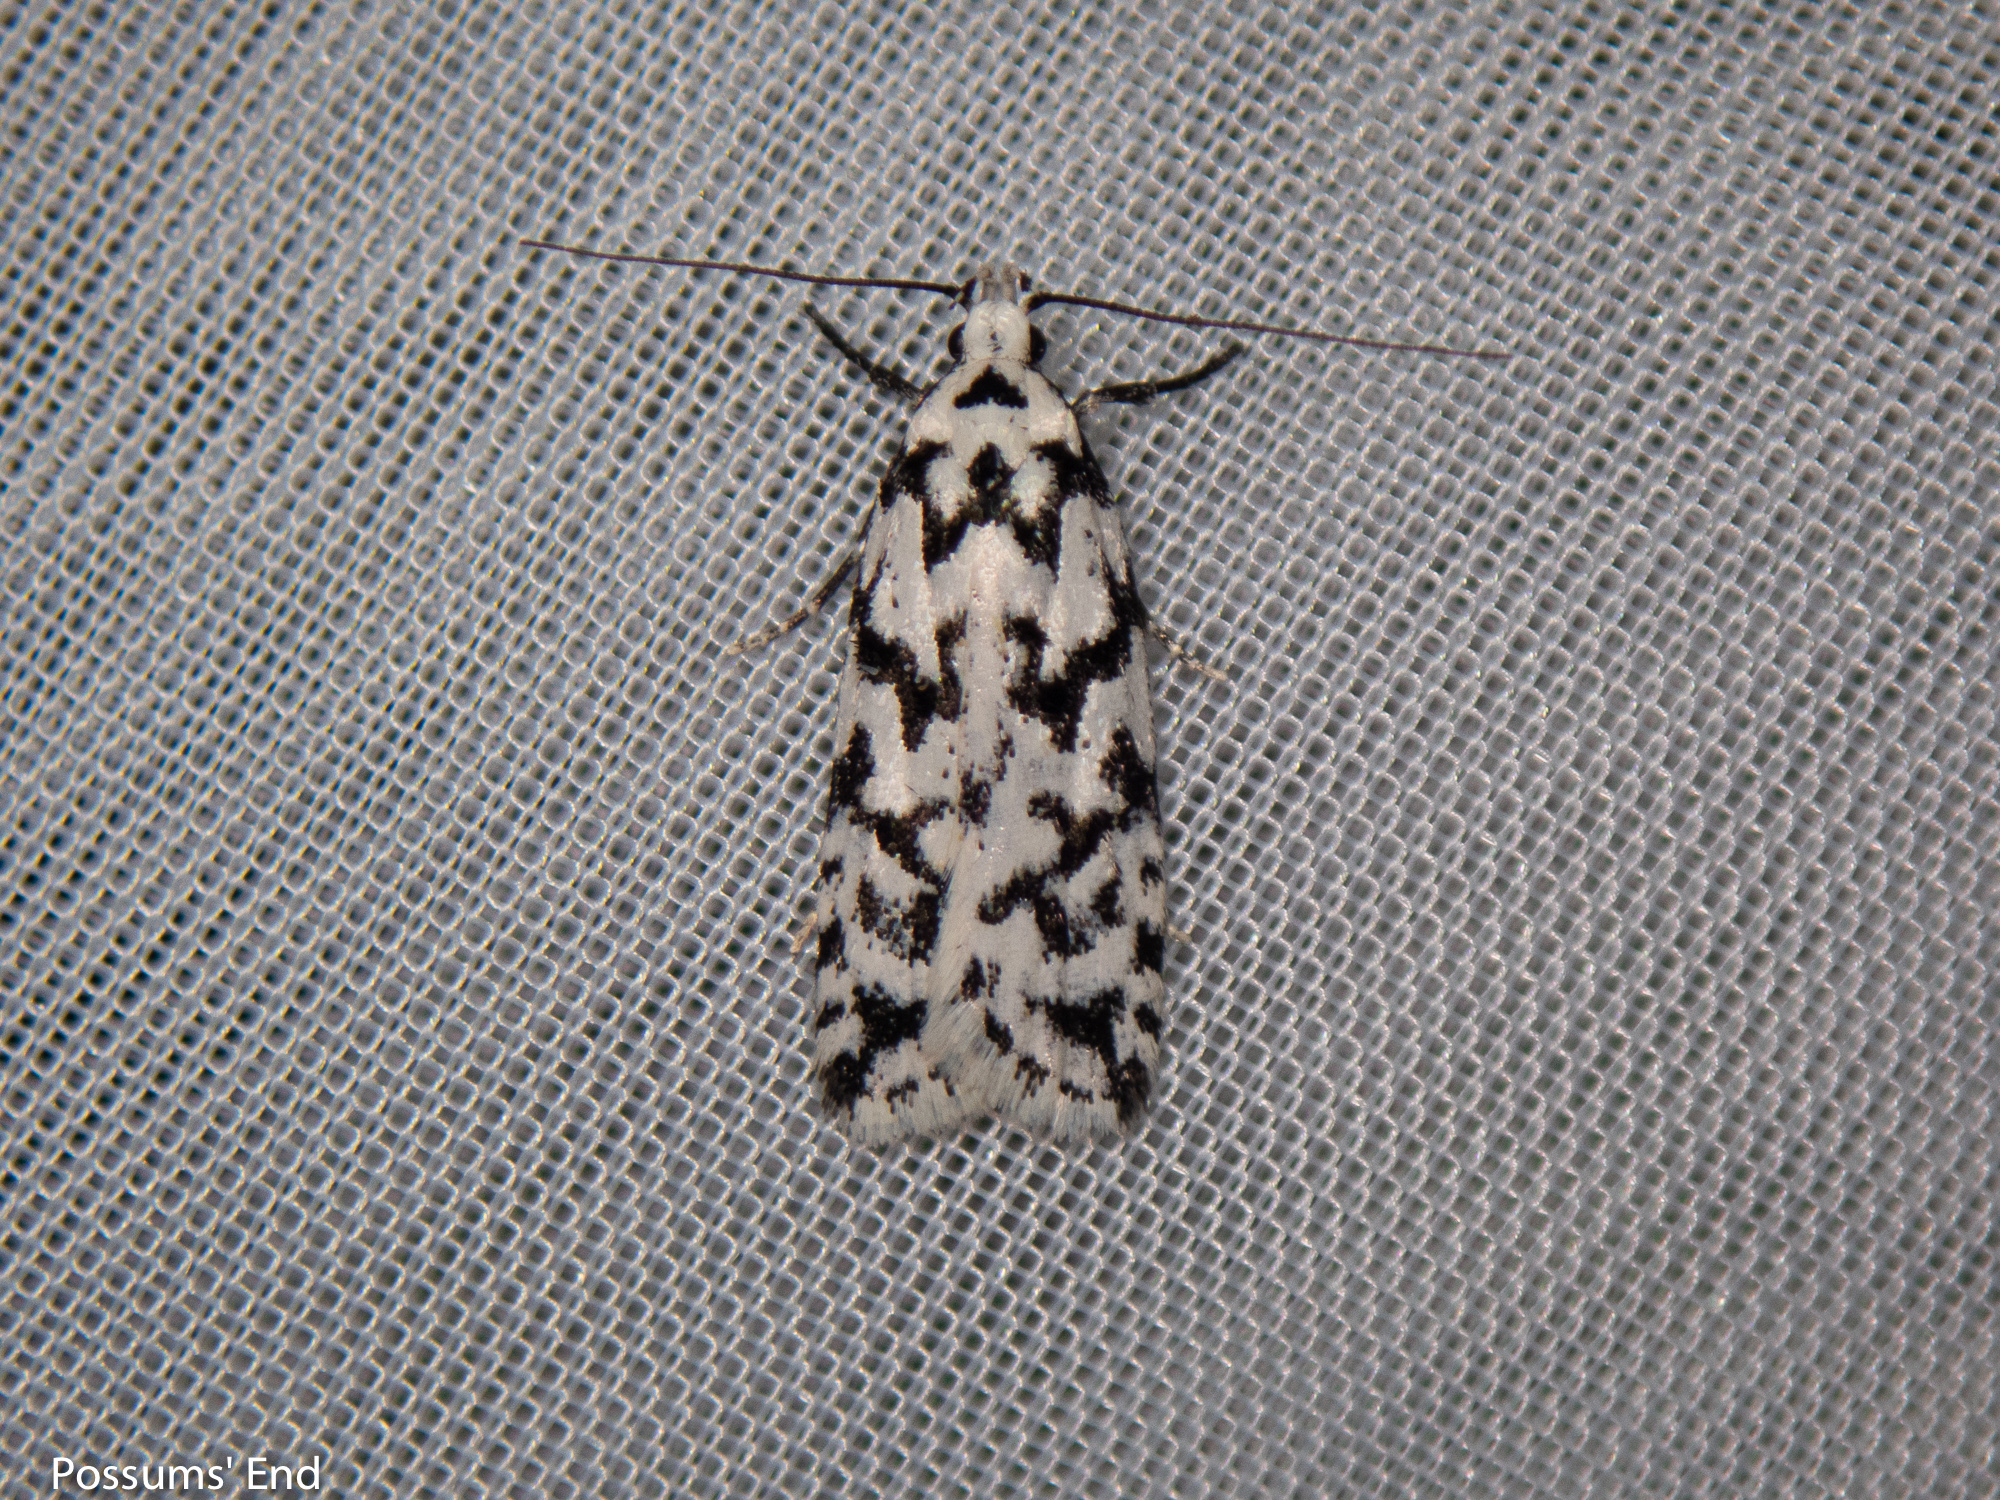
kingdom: Animalia
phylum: Arthropoda
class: Insecta
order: Lepidoptera
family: Oecophoridae
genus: Izatha
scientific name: Izatha katadiktya
